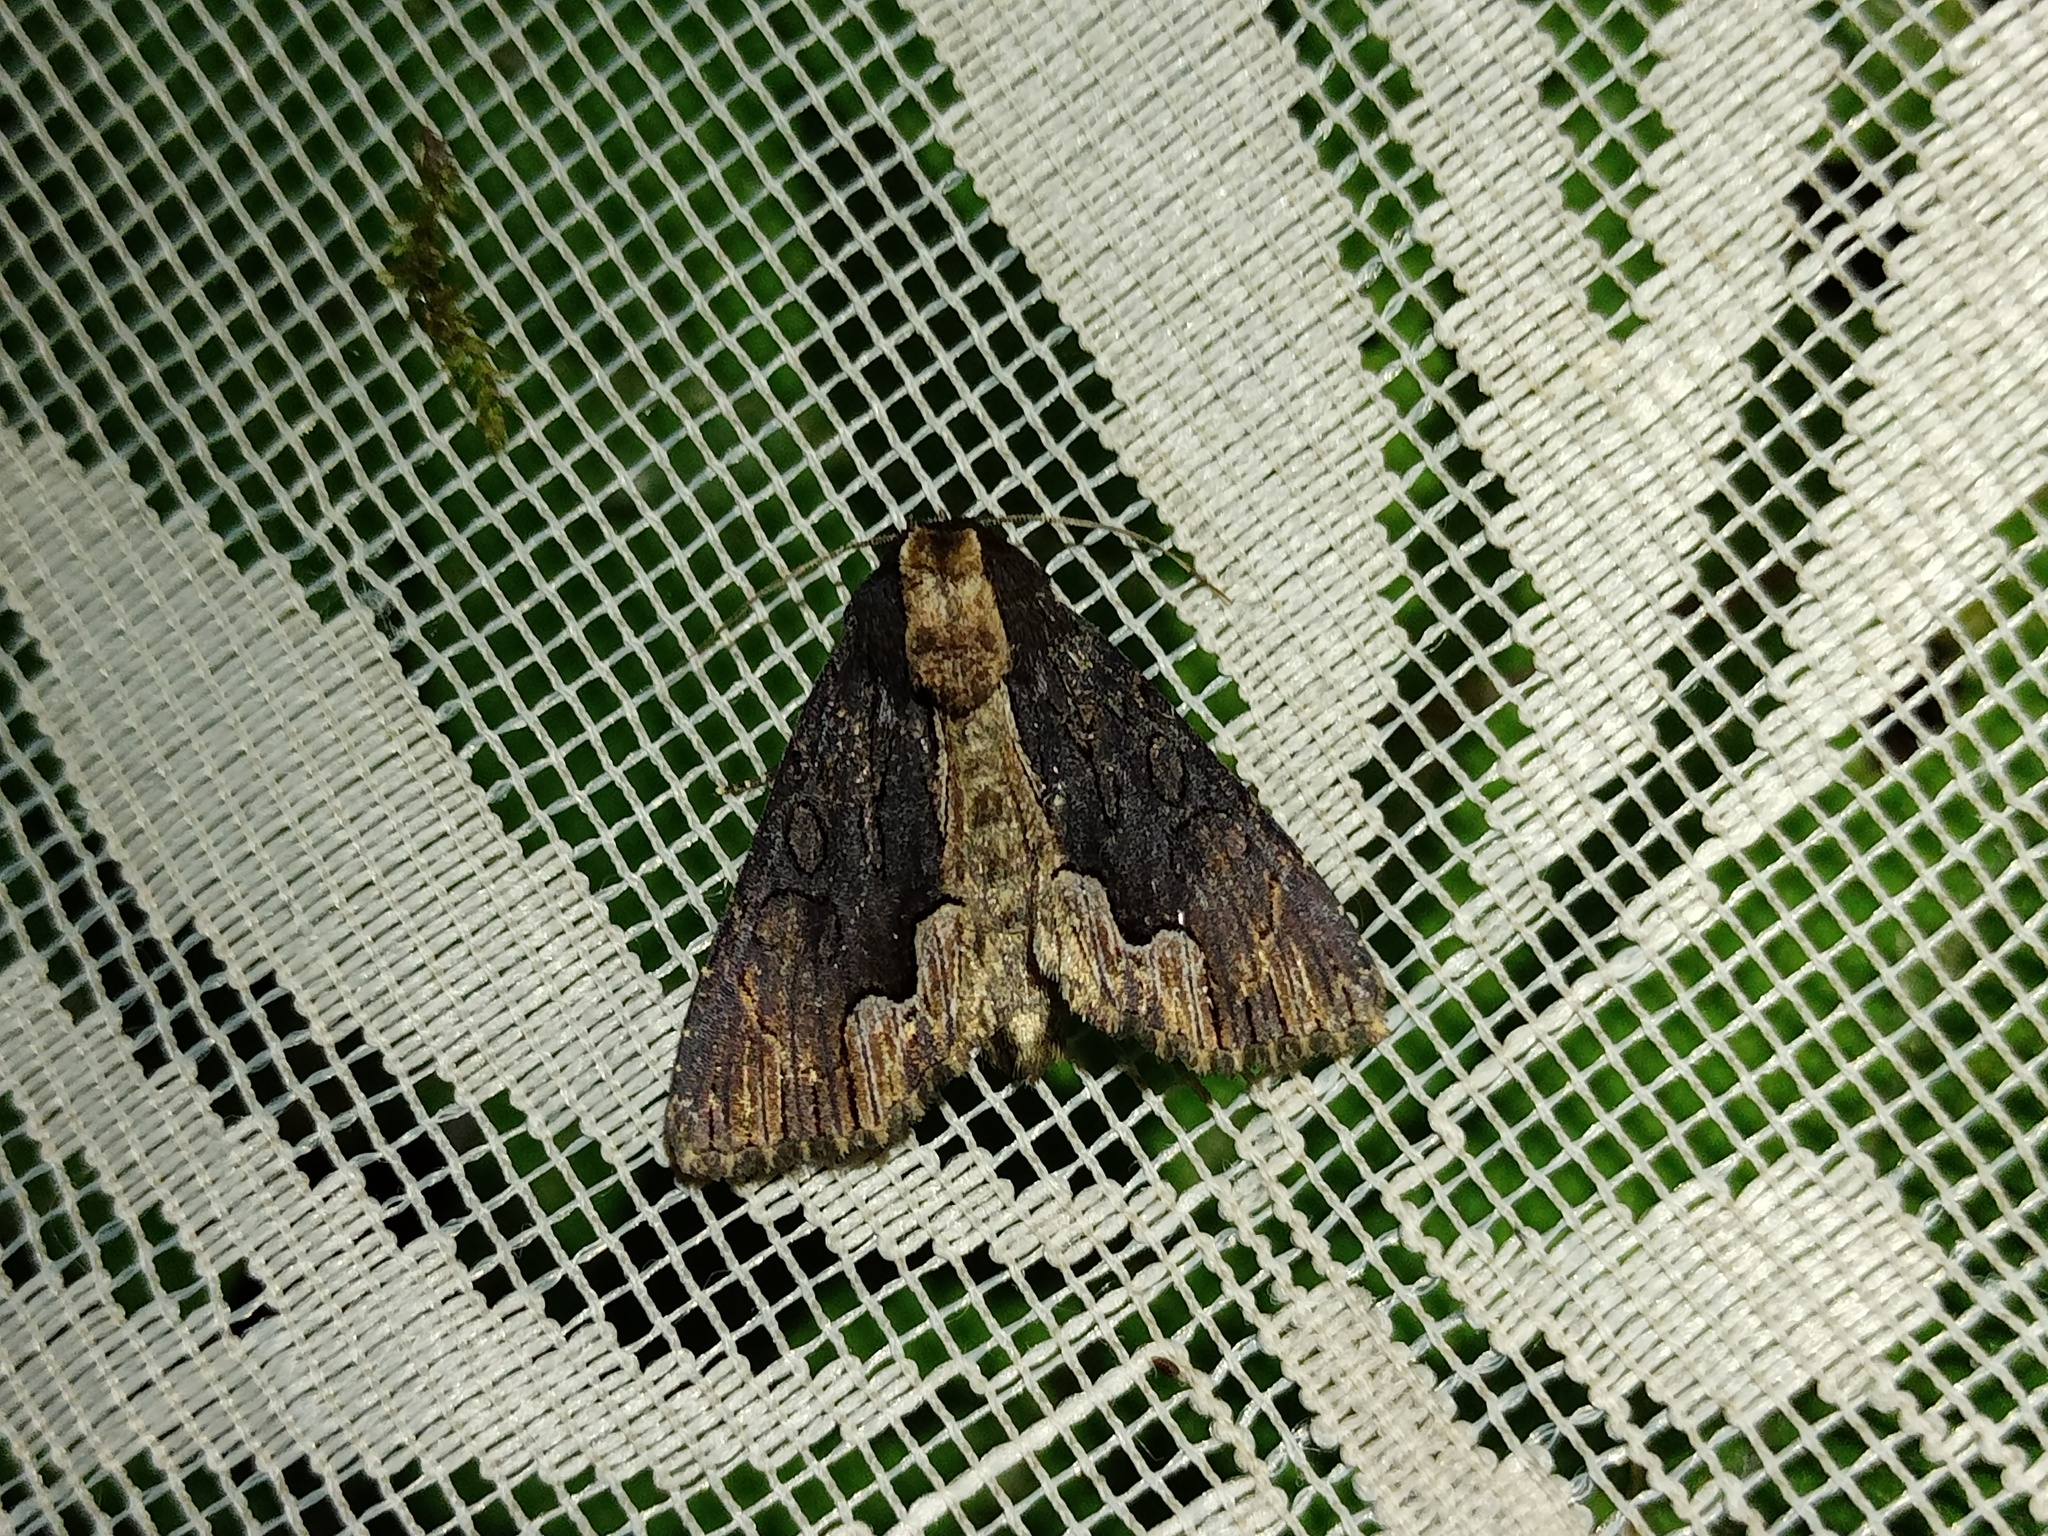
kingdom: Animalia
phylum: Arthropoda
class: Insecta
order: Lepidoptera
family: Noctuidae
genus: Dypterygia
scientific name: Dypterygia scabriuscula
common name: Bird's wing
